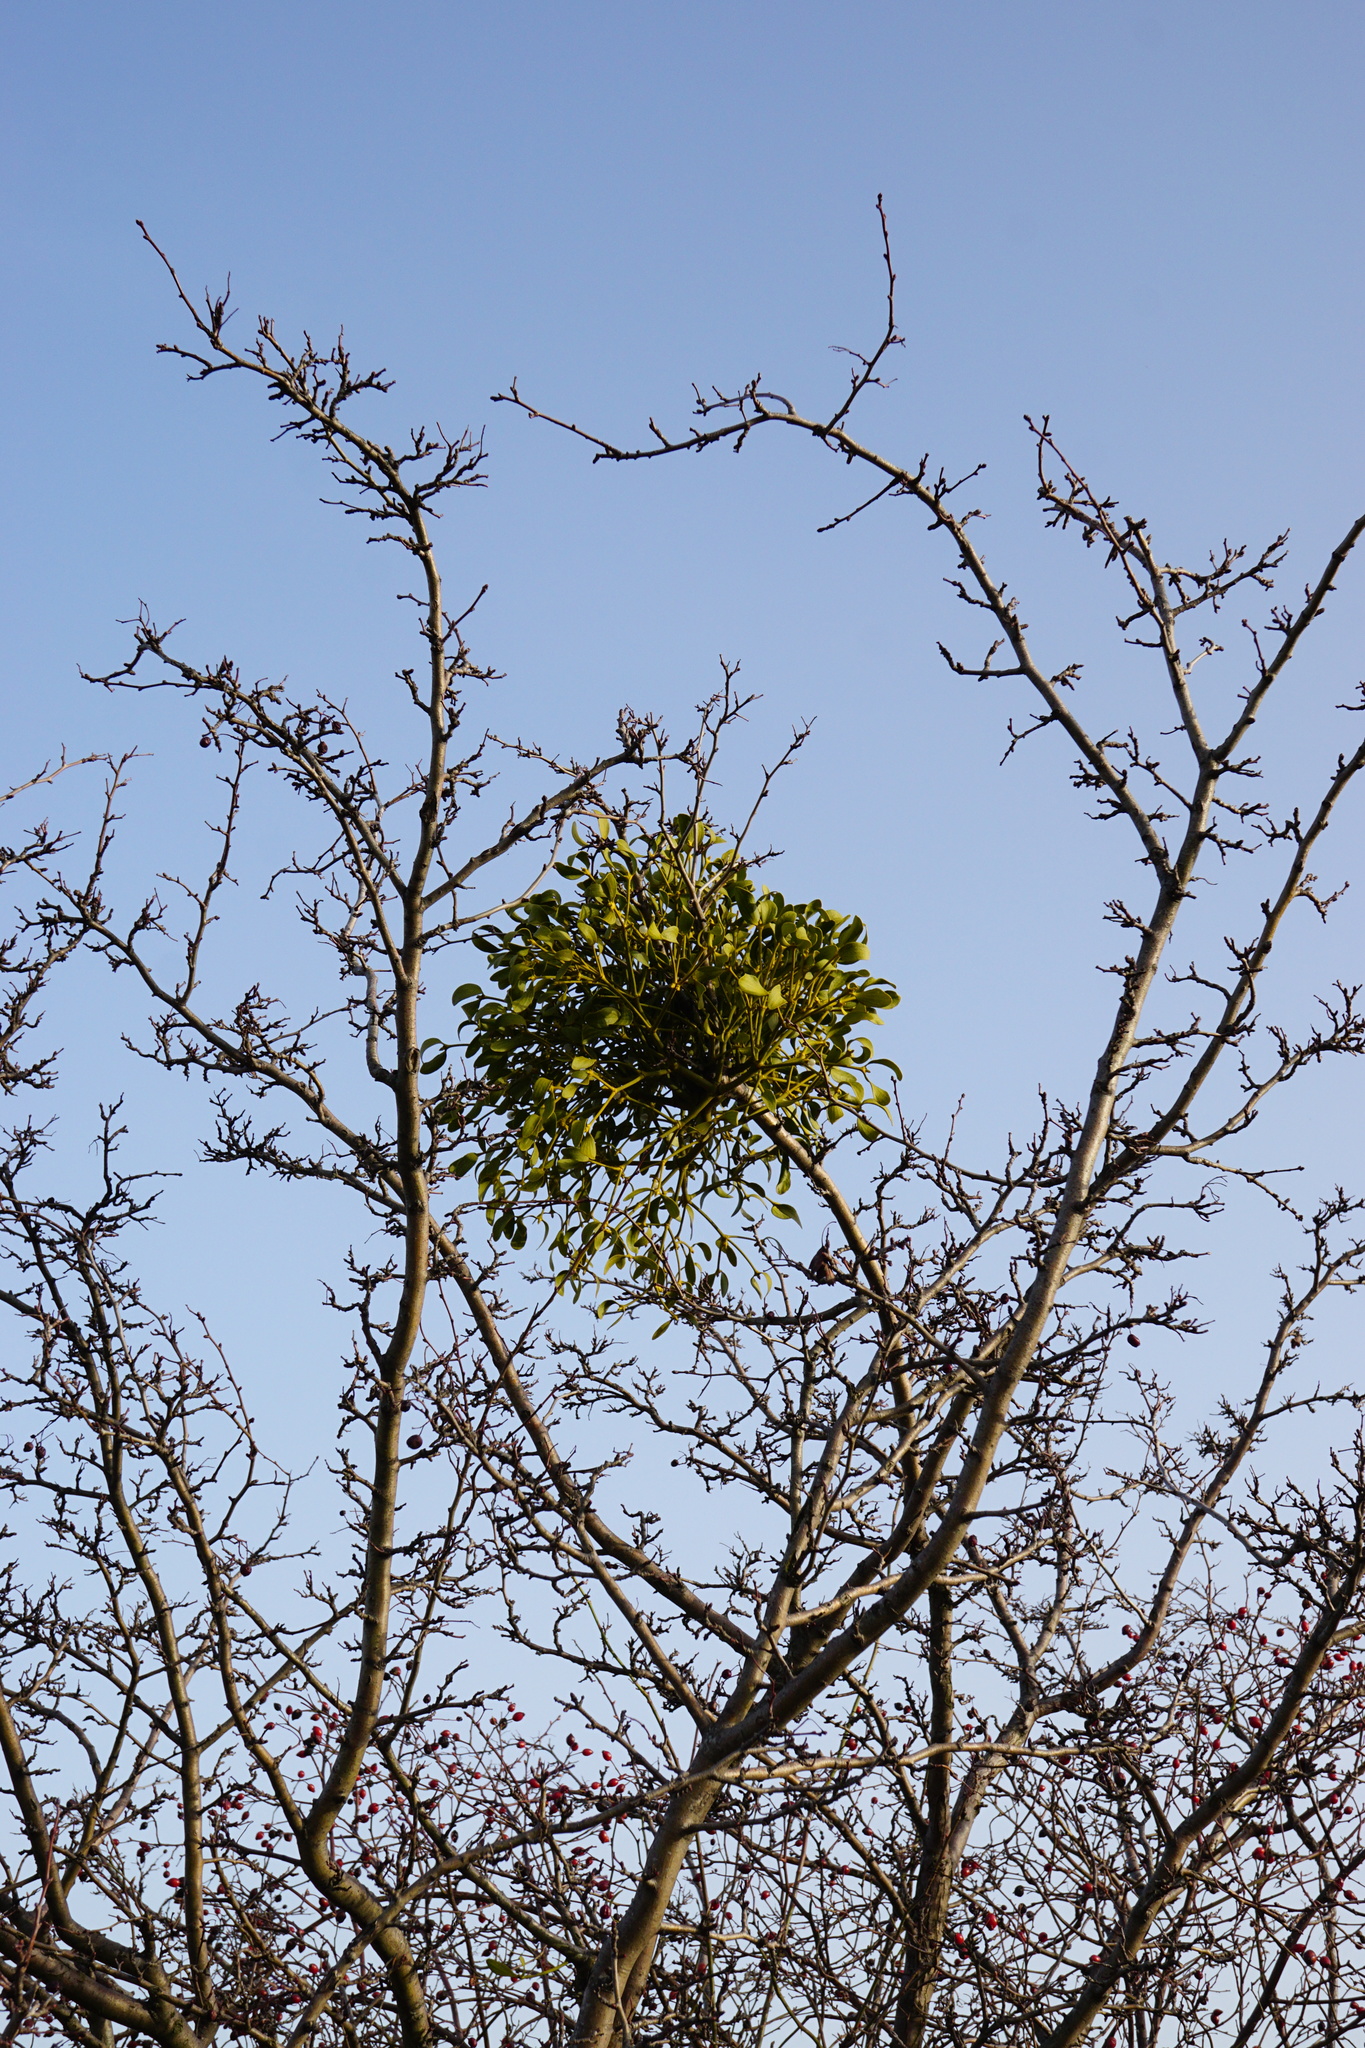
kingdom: Plantae
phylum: Tracheophyta
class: Magnoliopsida
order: Santalales
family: Viscaceae
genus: Viscum
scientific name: Viscum album
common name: Mistletoe
